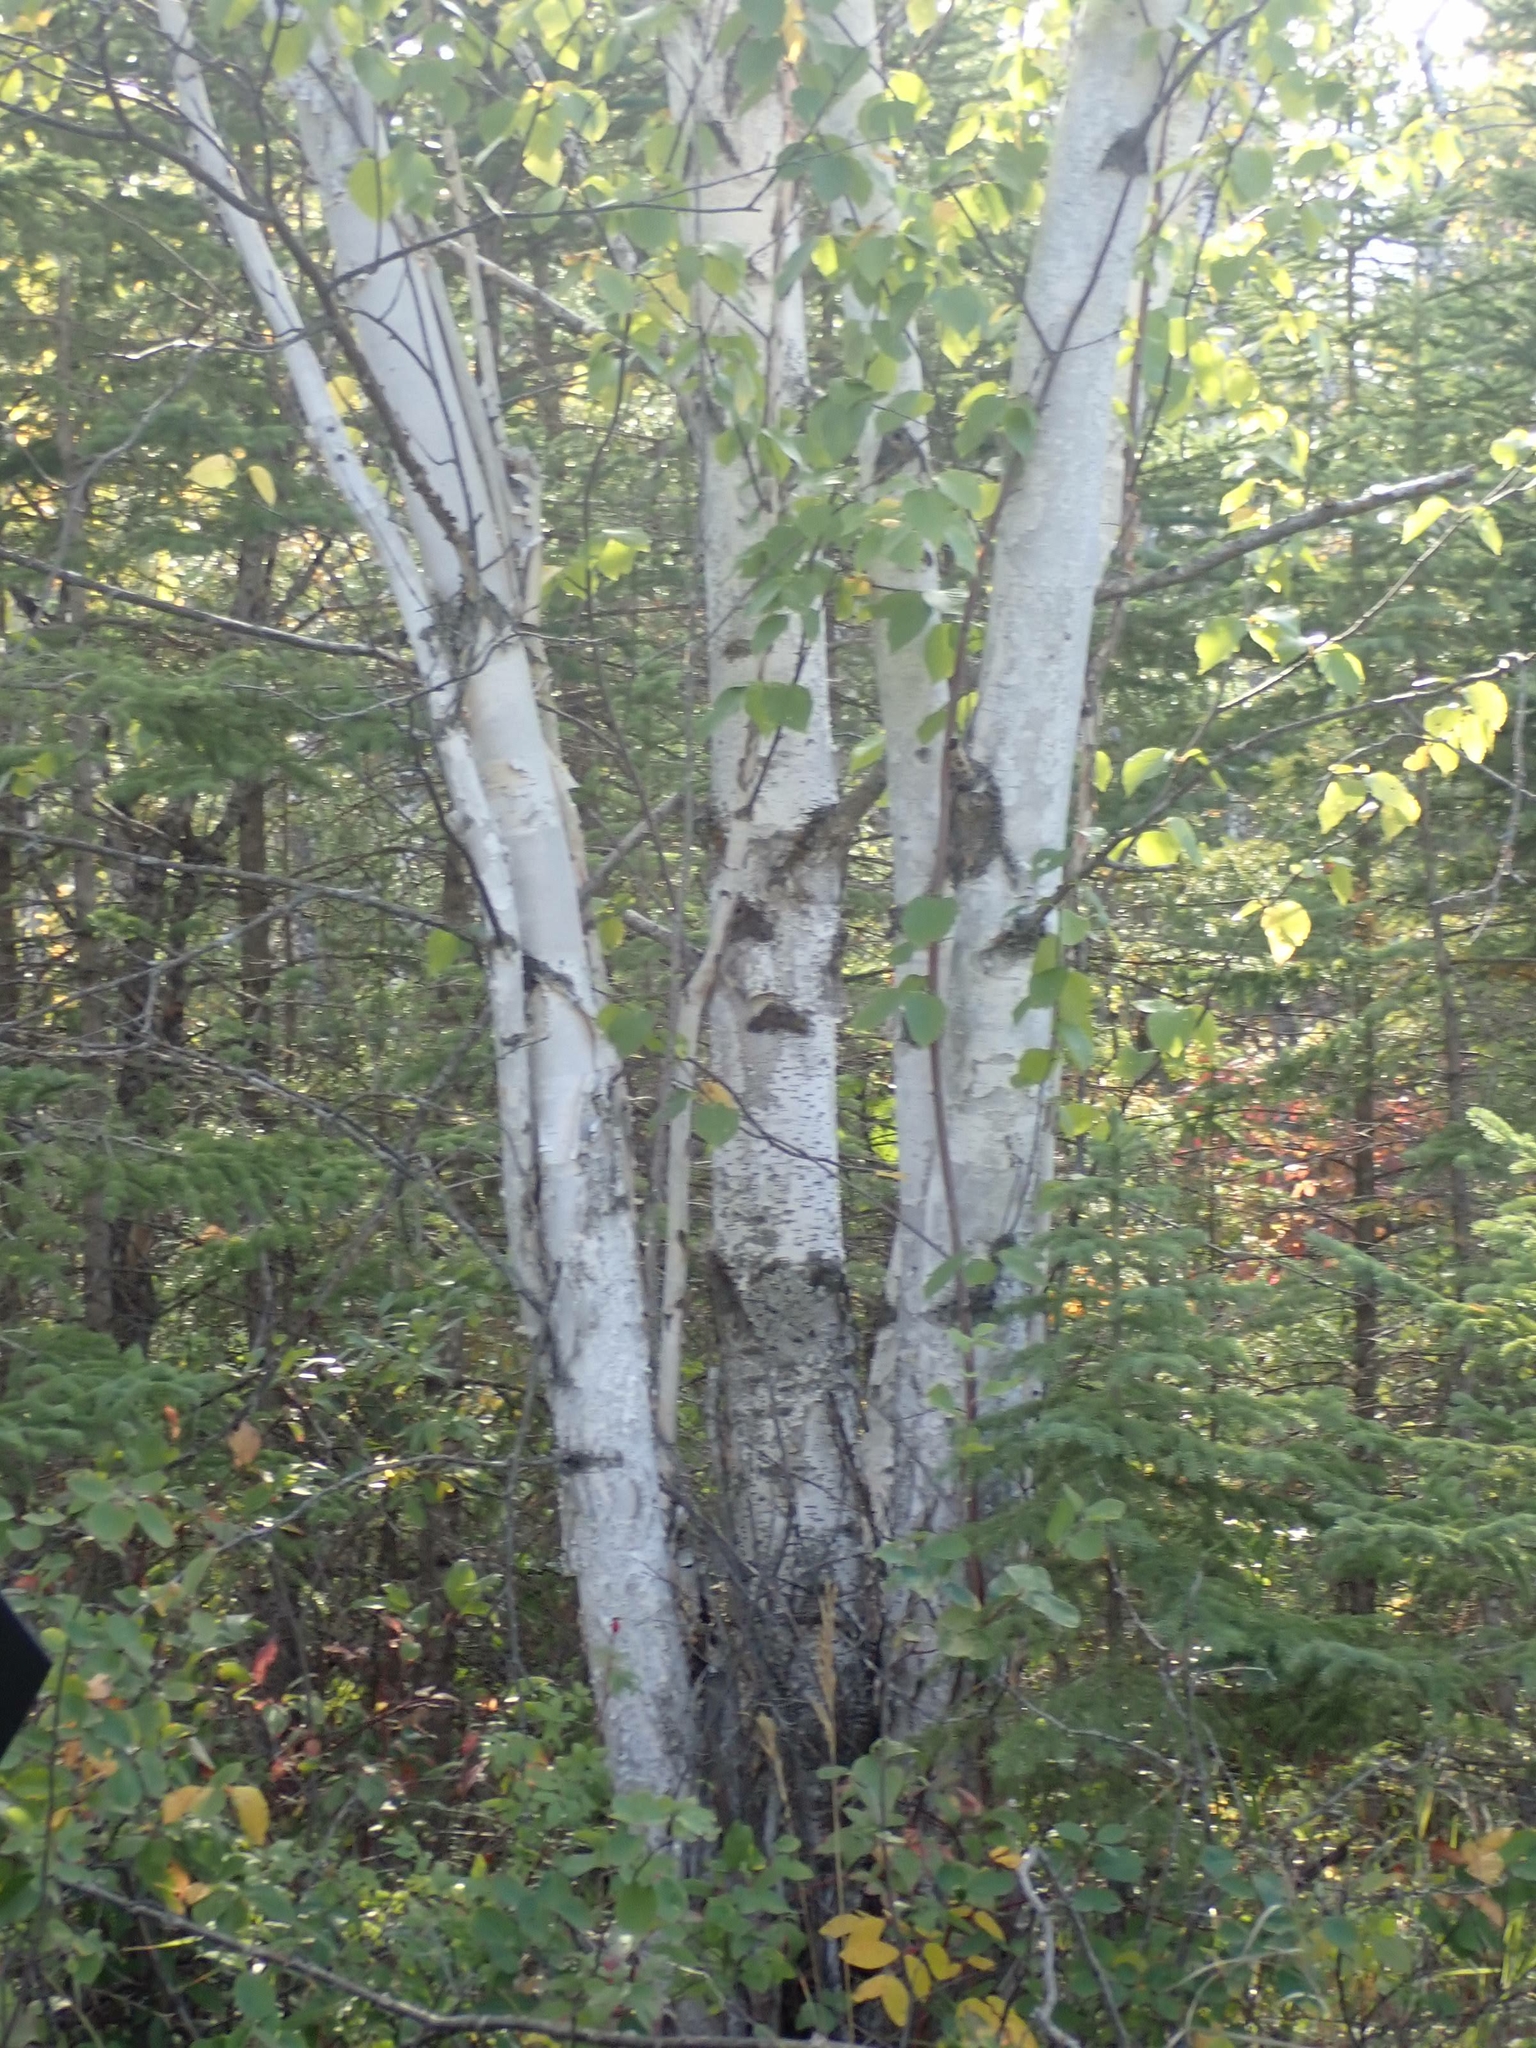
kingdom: Plantae
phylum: Tracheophyta
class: Magnoliopsida
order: Fagales
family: Betulaceae
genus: Betula
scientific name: Betula papyrifera
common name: Paper birch
